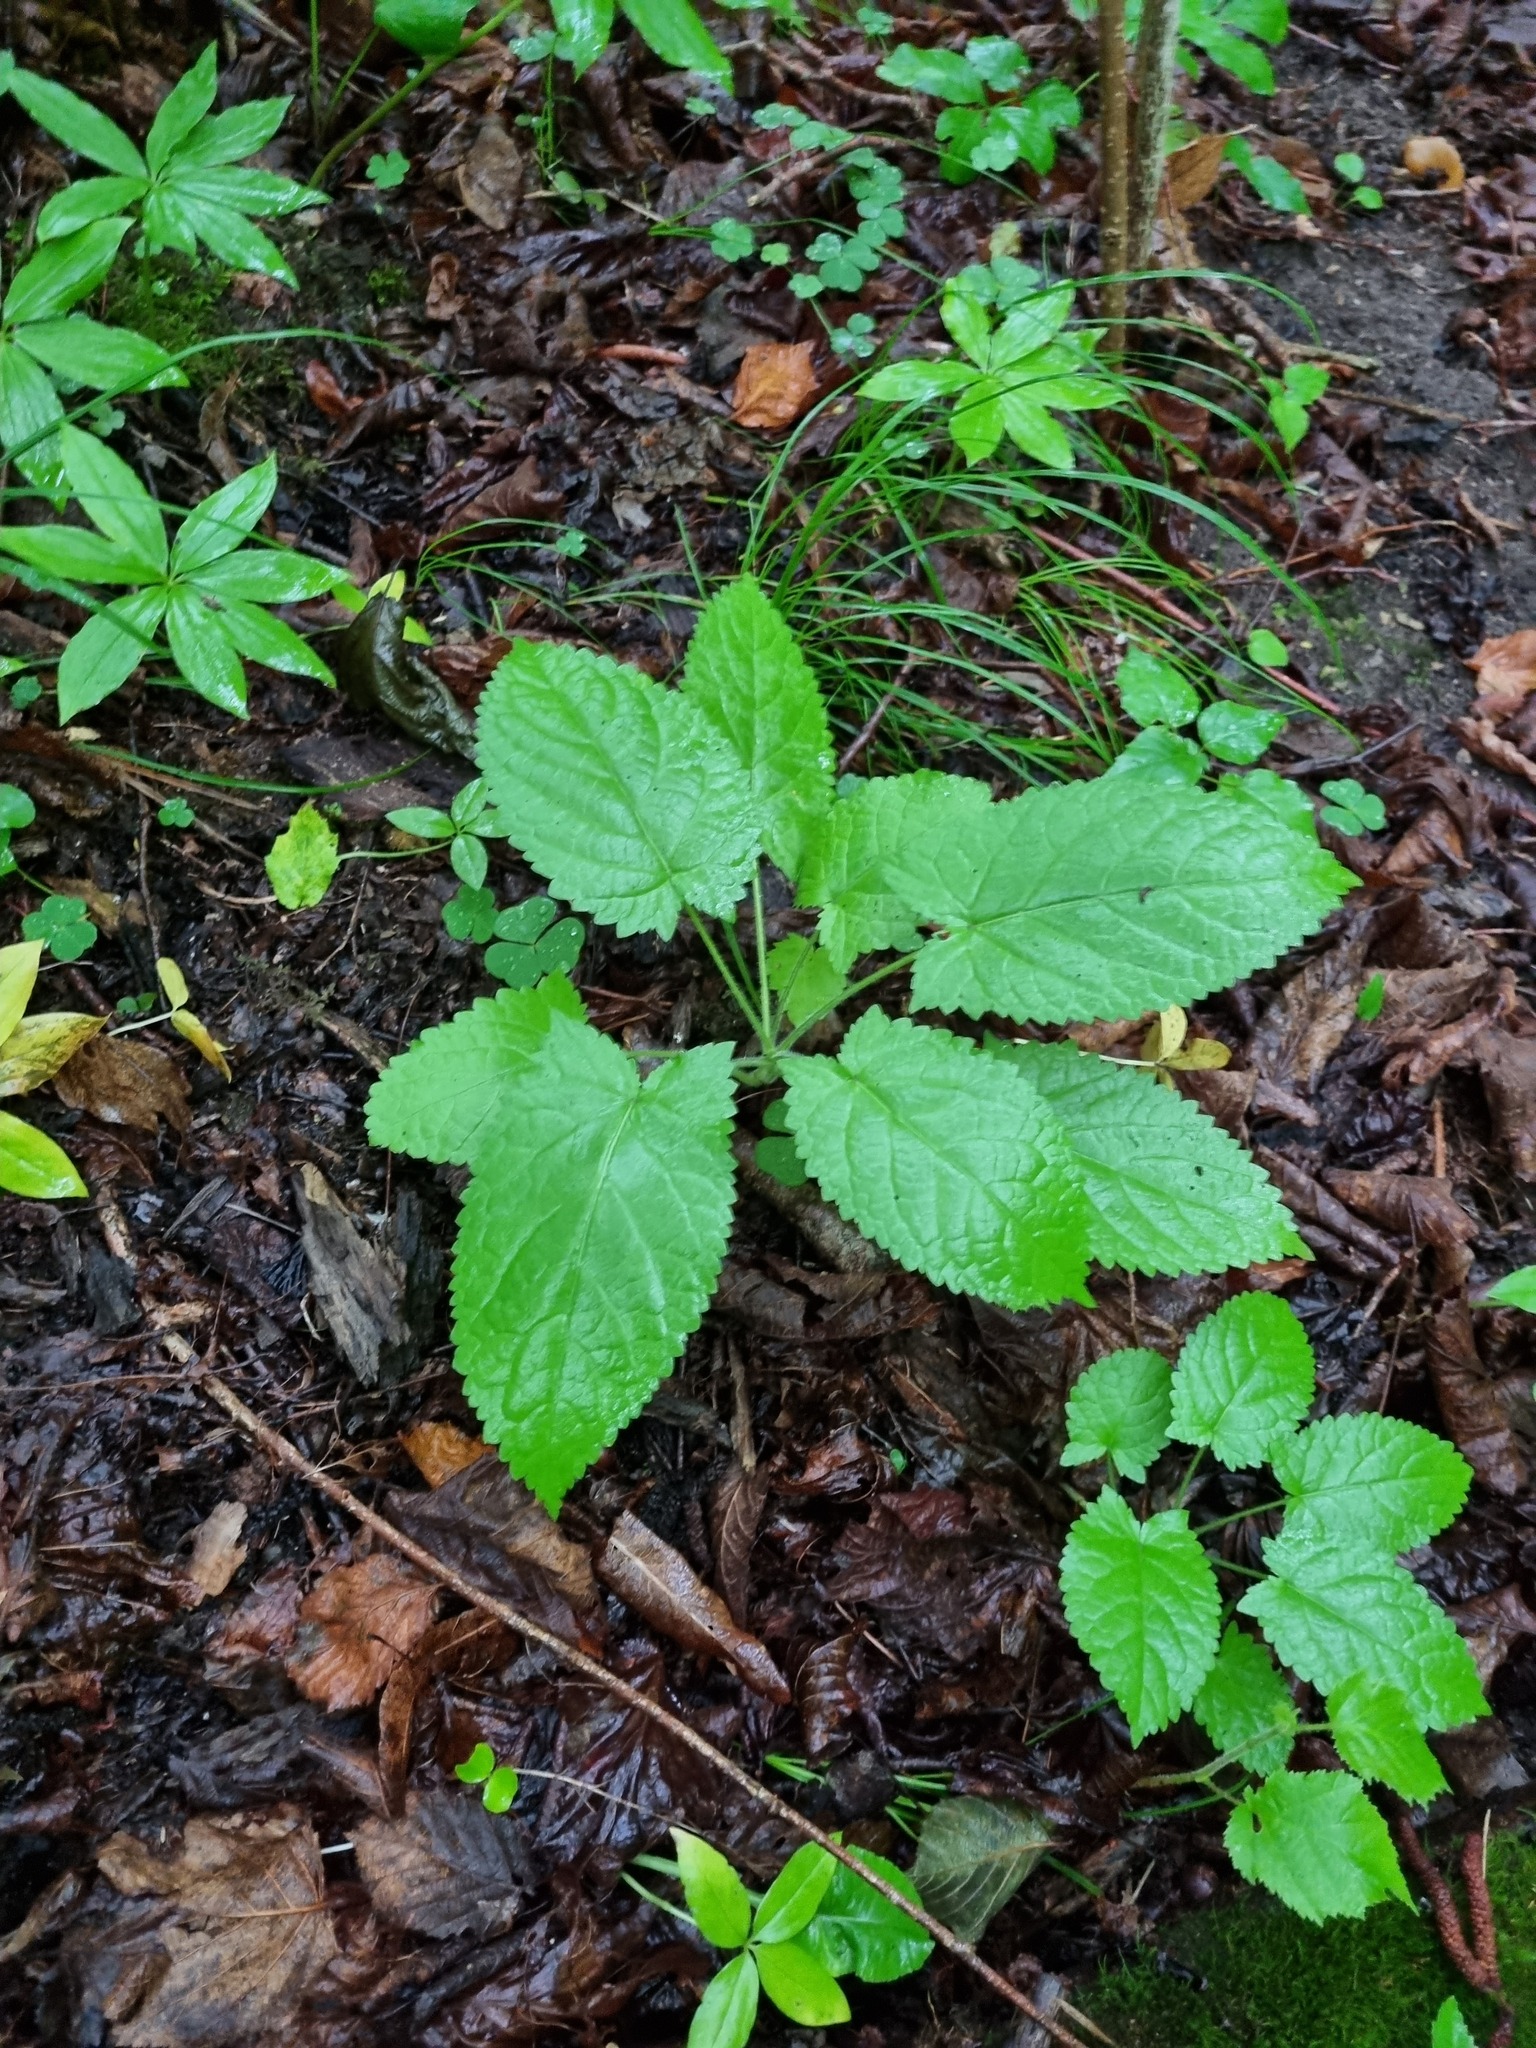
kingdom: Plantae
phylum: Tracheophyta
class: Magnoliopsida
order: Lamiales
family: Lamiaceae
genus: Salvia
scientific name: Salvia glutinosa
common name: Sticky clary
